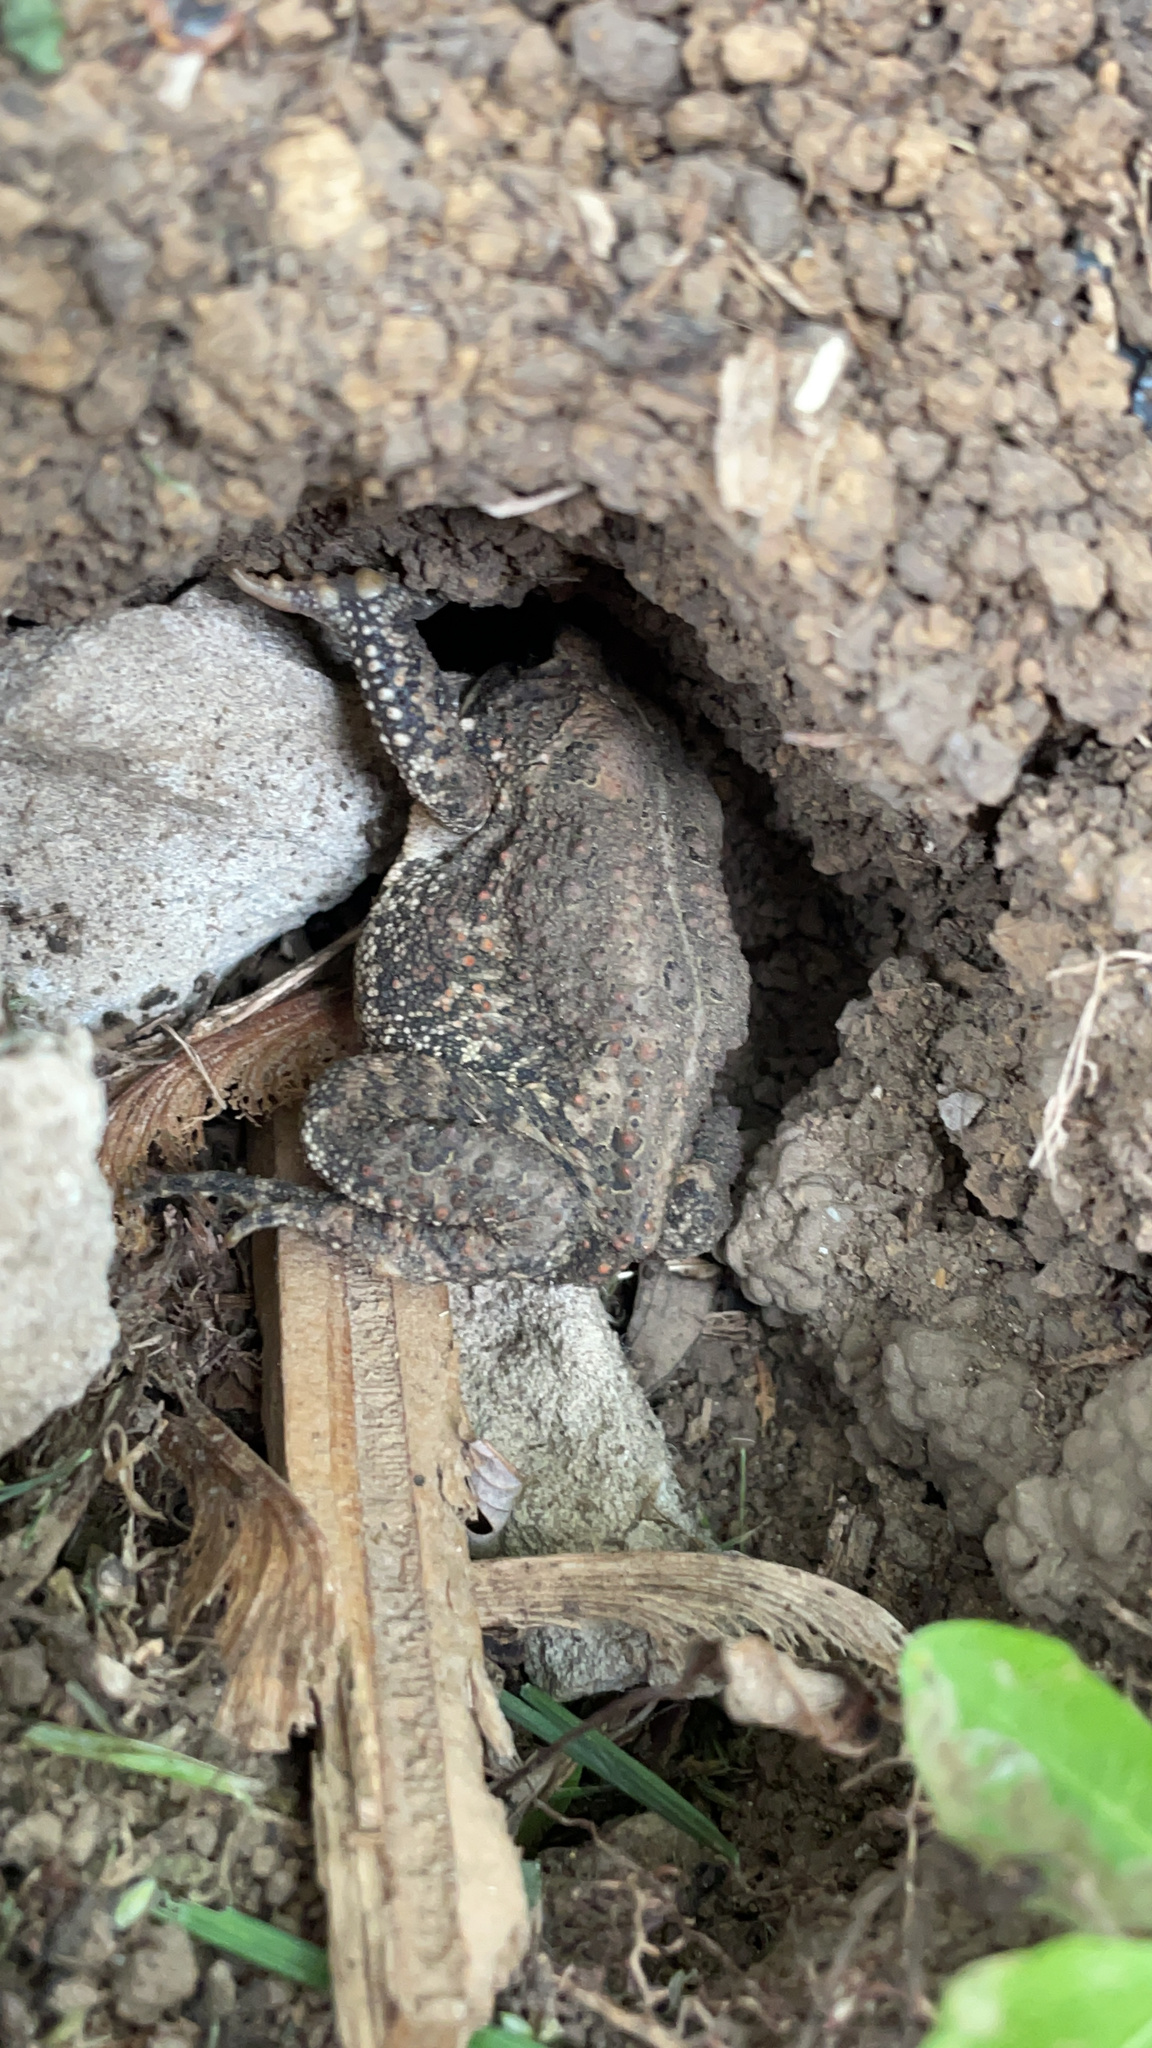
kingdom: Animalia
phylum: Chordata
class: Amphibia
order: Anura
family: Bufonidae
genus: Anaxyrus
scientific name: Anaxyrus americanus
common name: American toad
